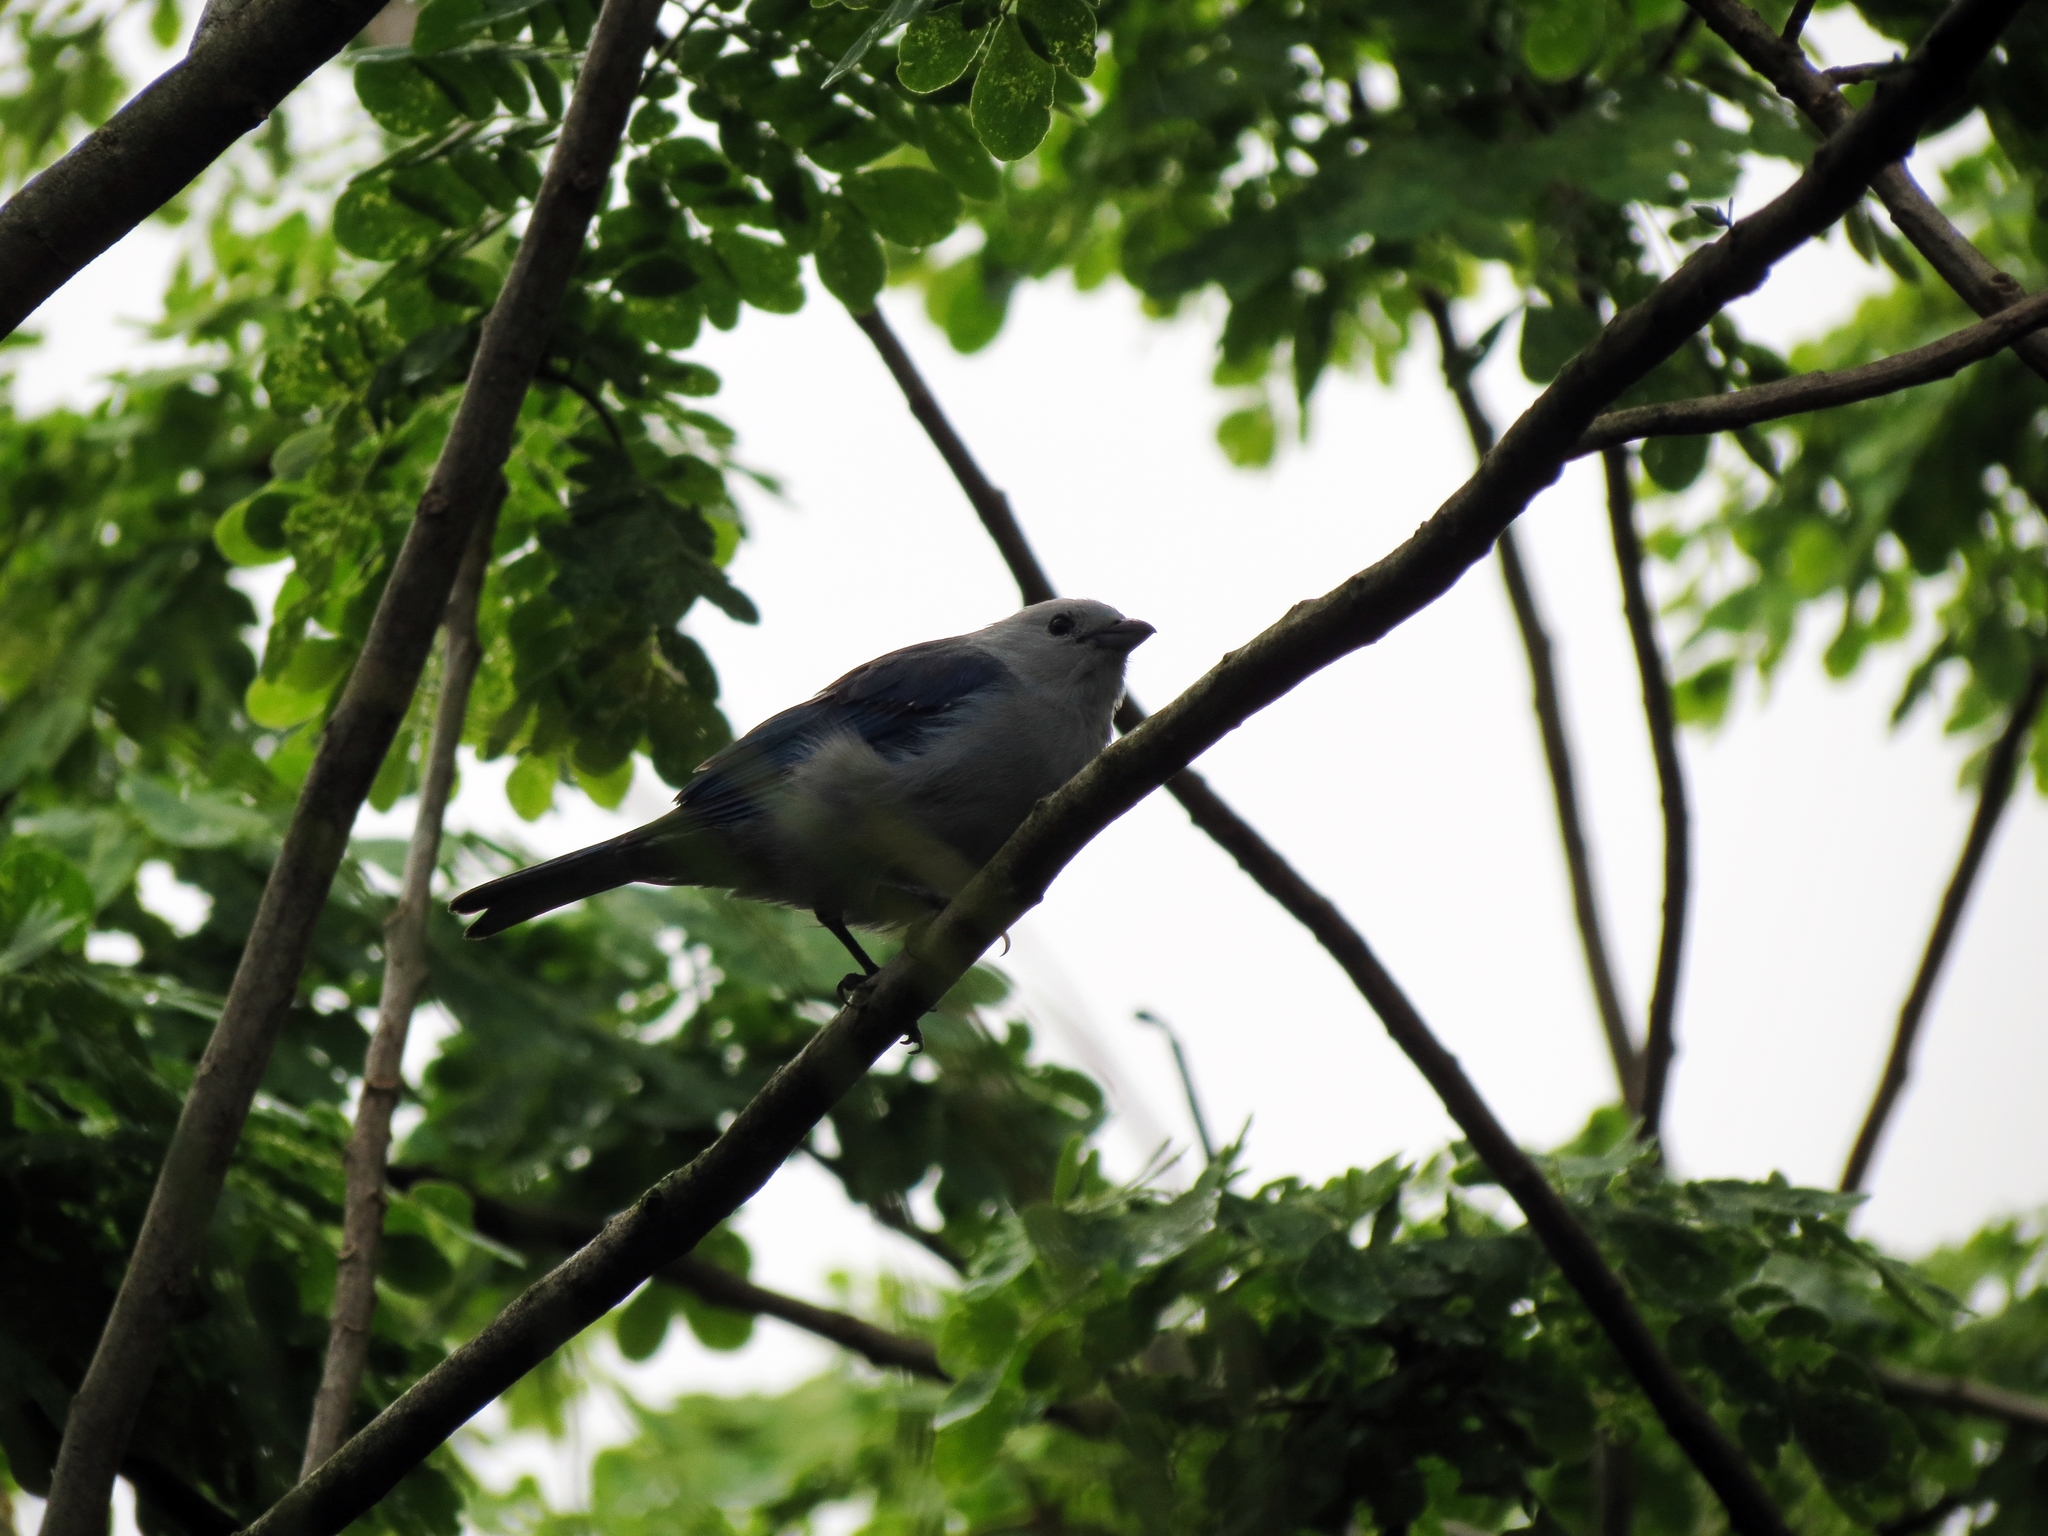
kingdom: Animalia
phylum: Chordata
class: Aves
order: Passeriformes
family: Thraupidae
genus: Thraupis
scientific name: Thraupis episcopus
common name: Blue-grey tanager
